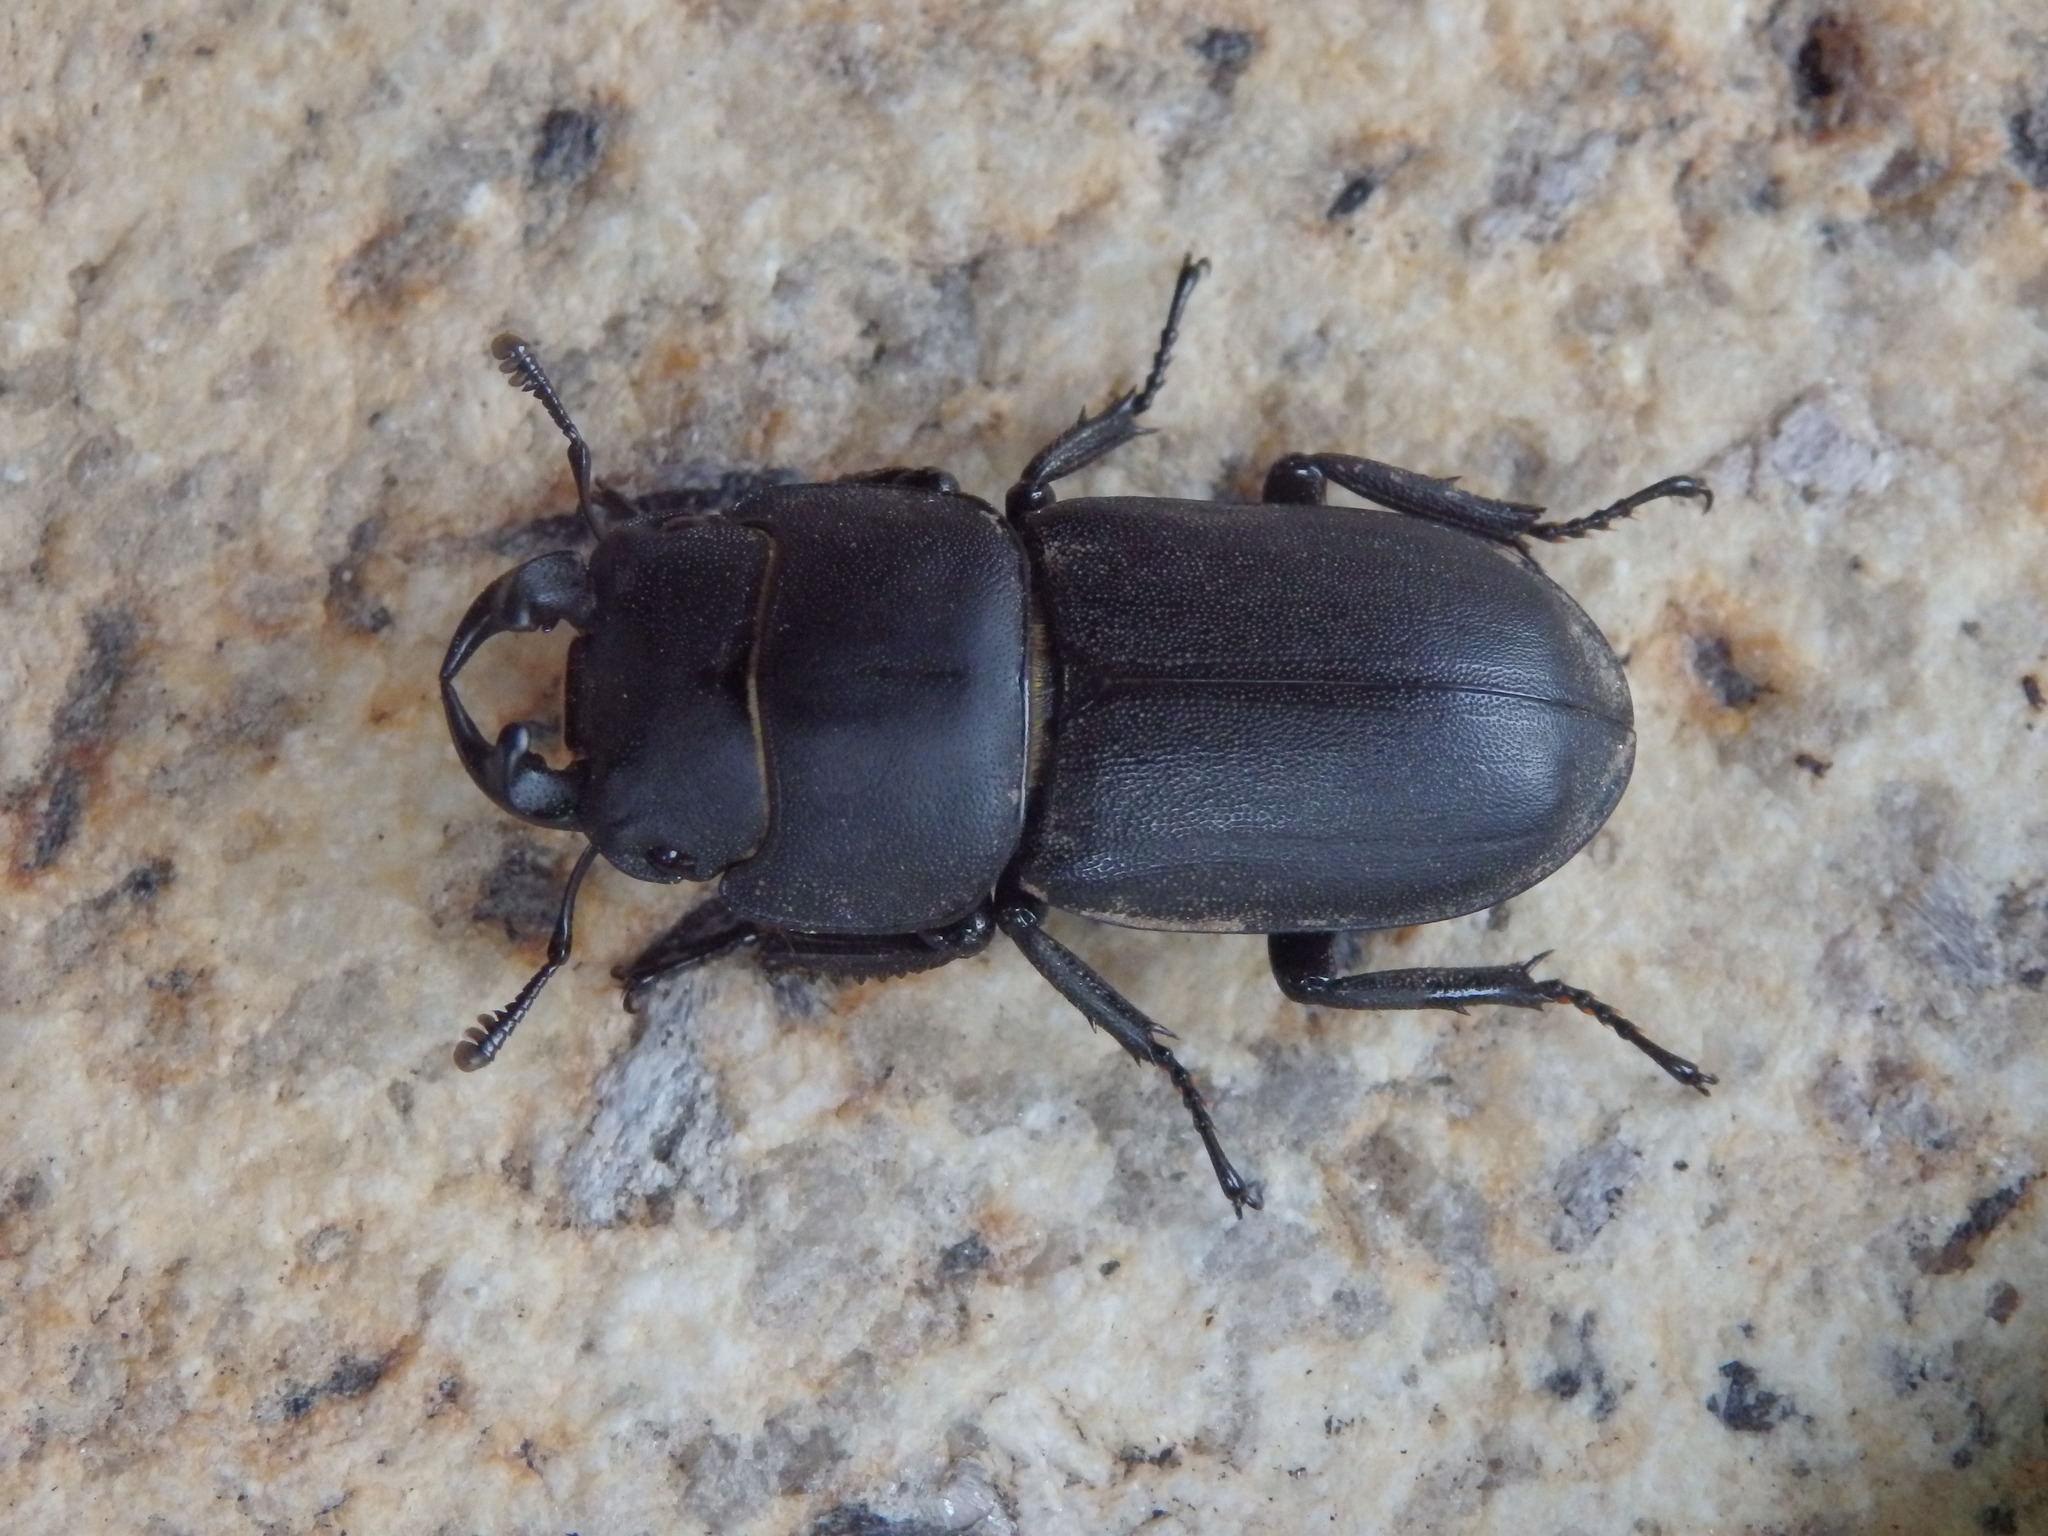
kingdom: Animalia
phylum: Arthropoda
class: Insecta
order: Coleoptera
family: Lucanidae
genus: Dorcus
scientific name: Dorcus parallelipipedus
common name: Lesser stag beetle
